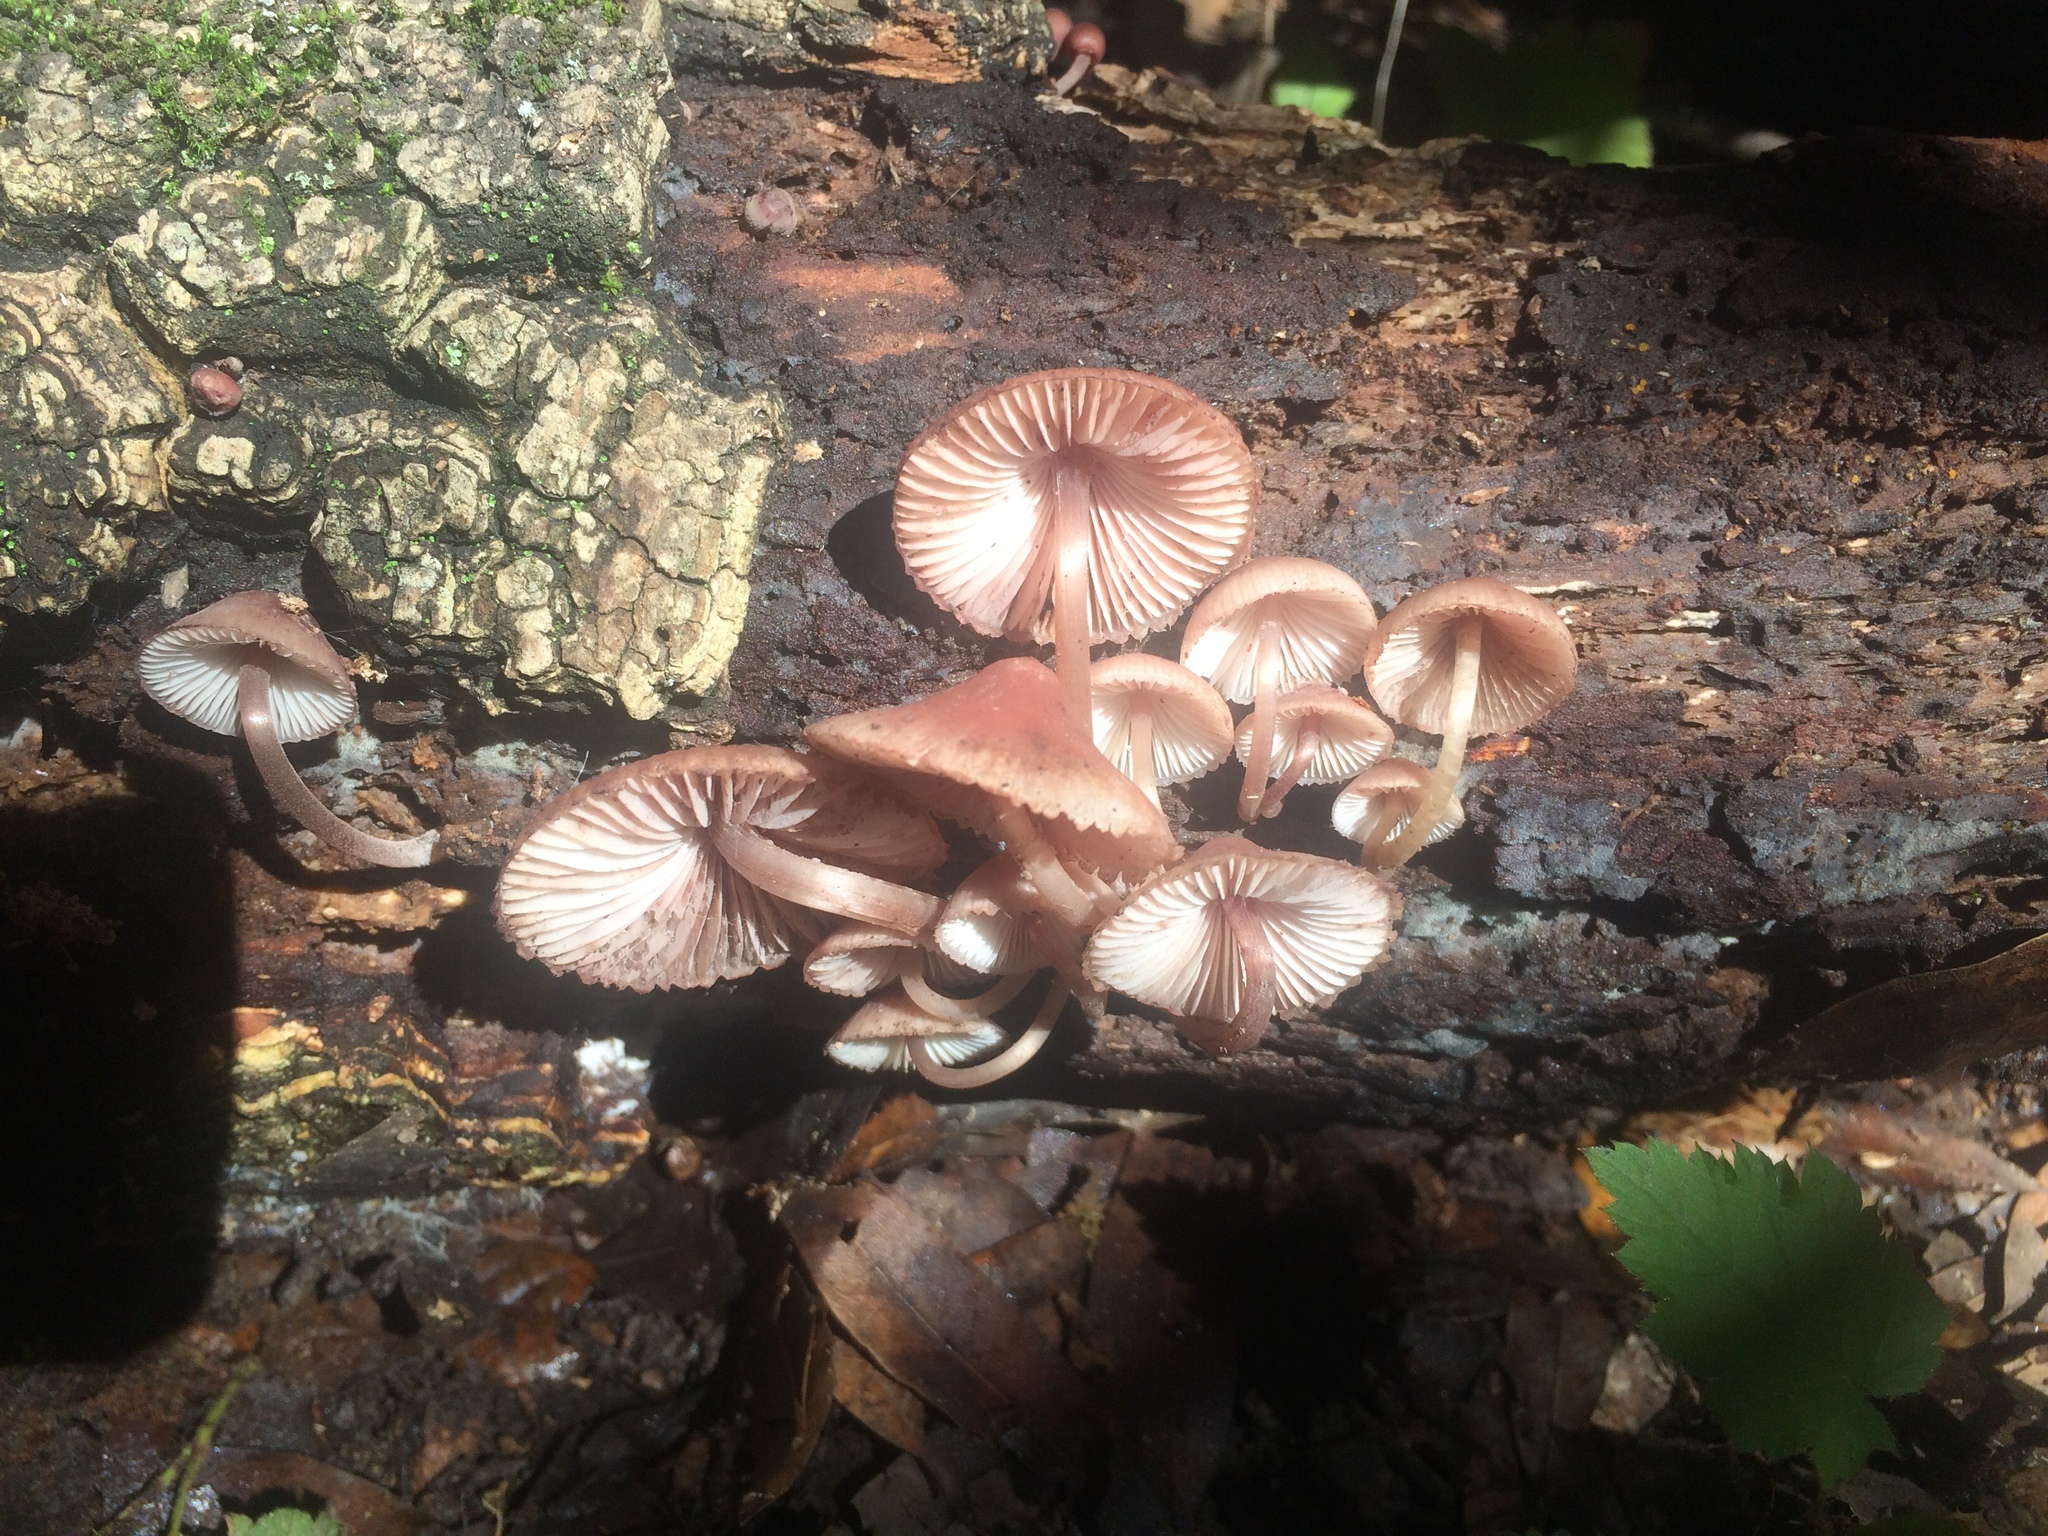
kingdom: Fungi
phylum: Basidiomycota
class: Agaricomycetes
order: Agaricales
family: Mycenaceae
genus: Mycena
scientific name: Mycena haematopus
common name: Burgundydrop bonnet
